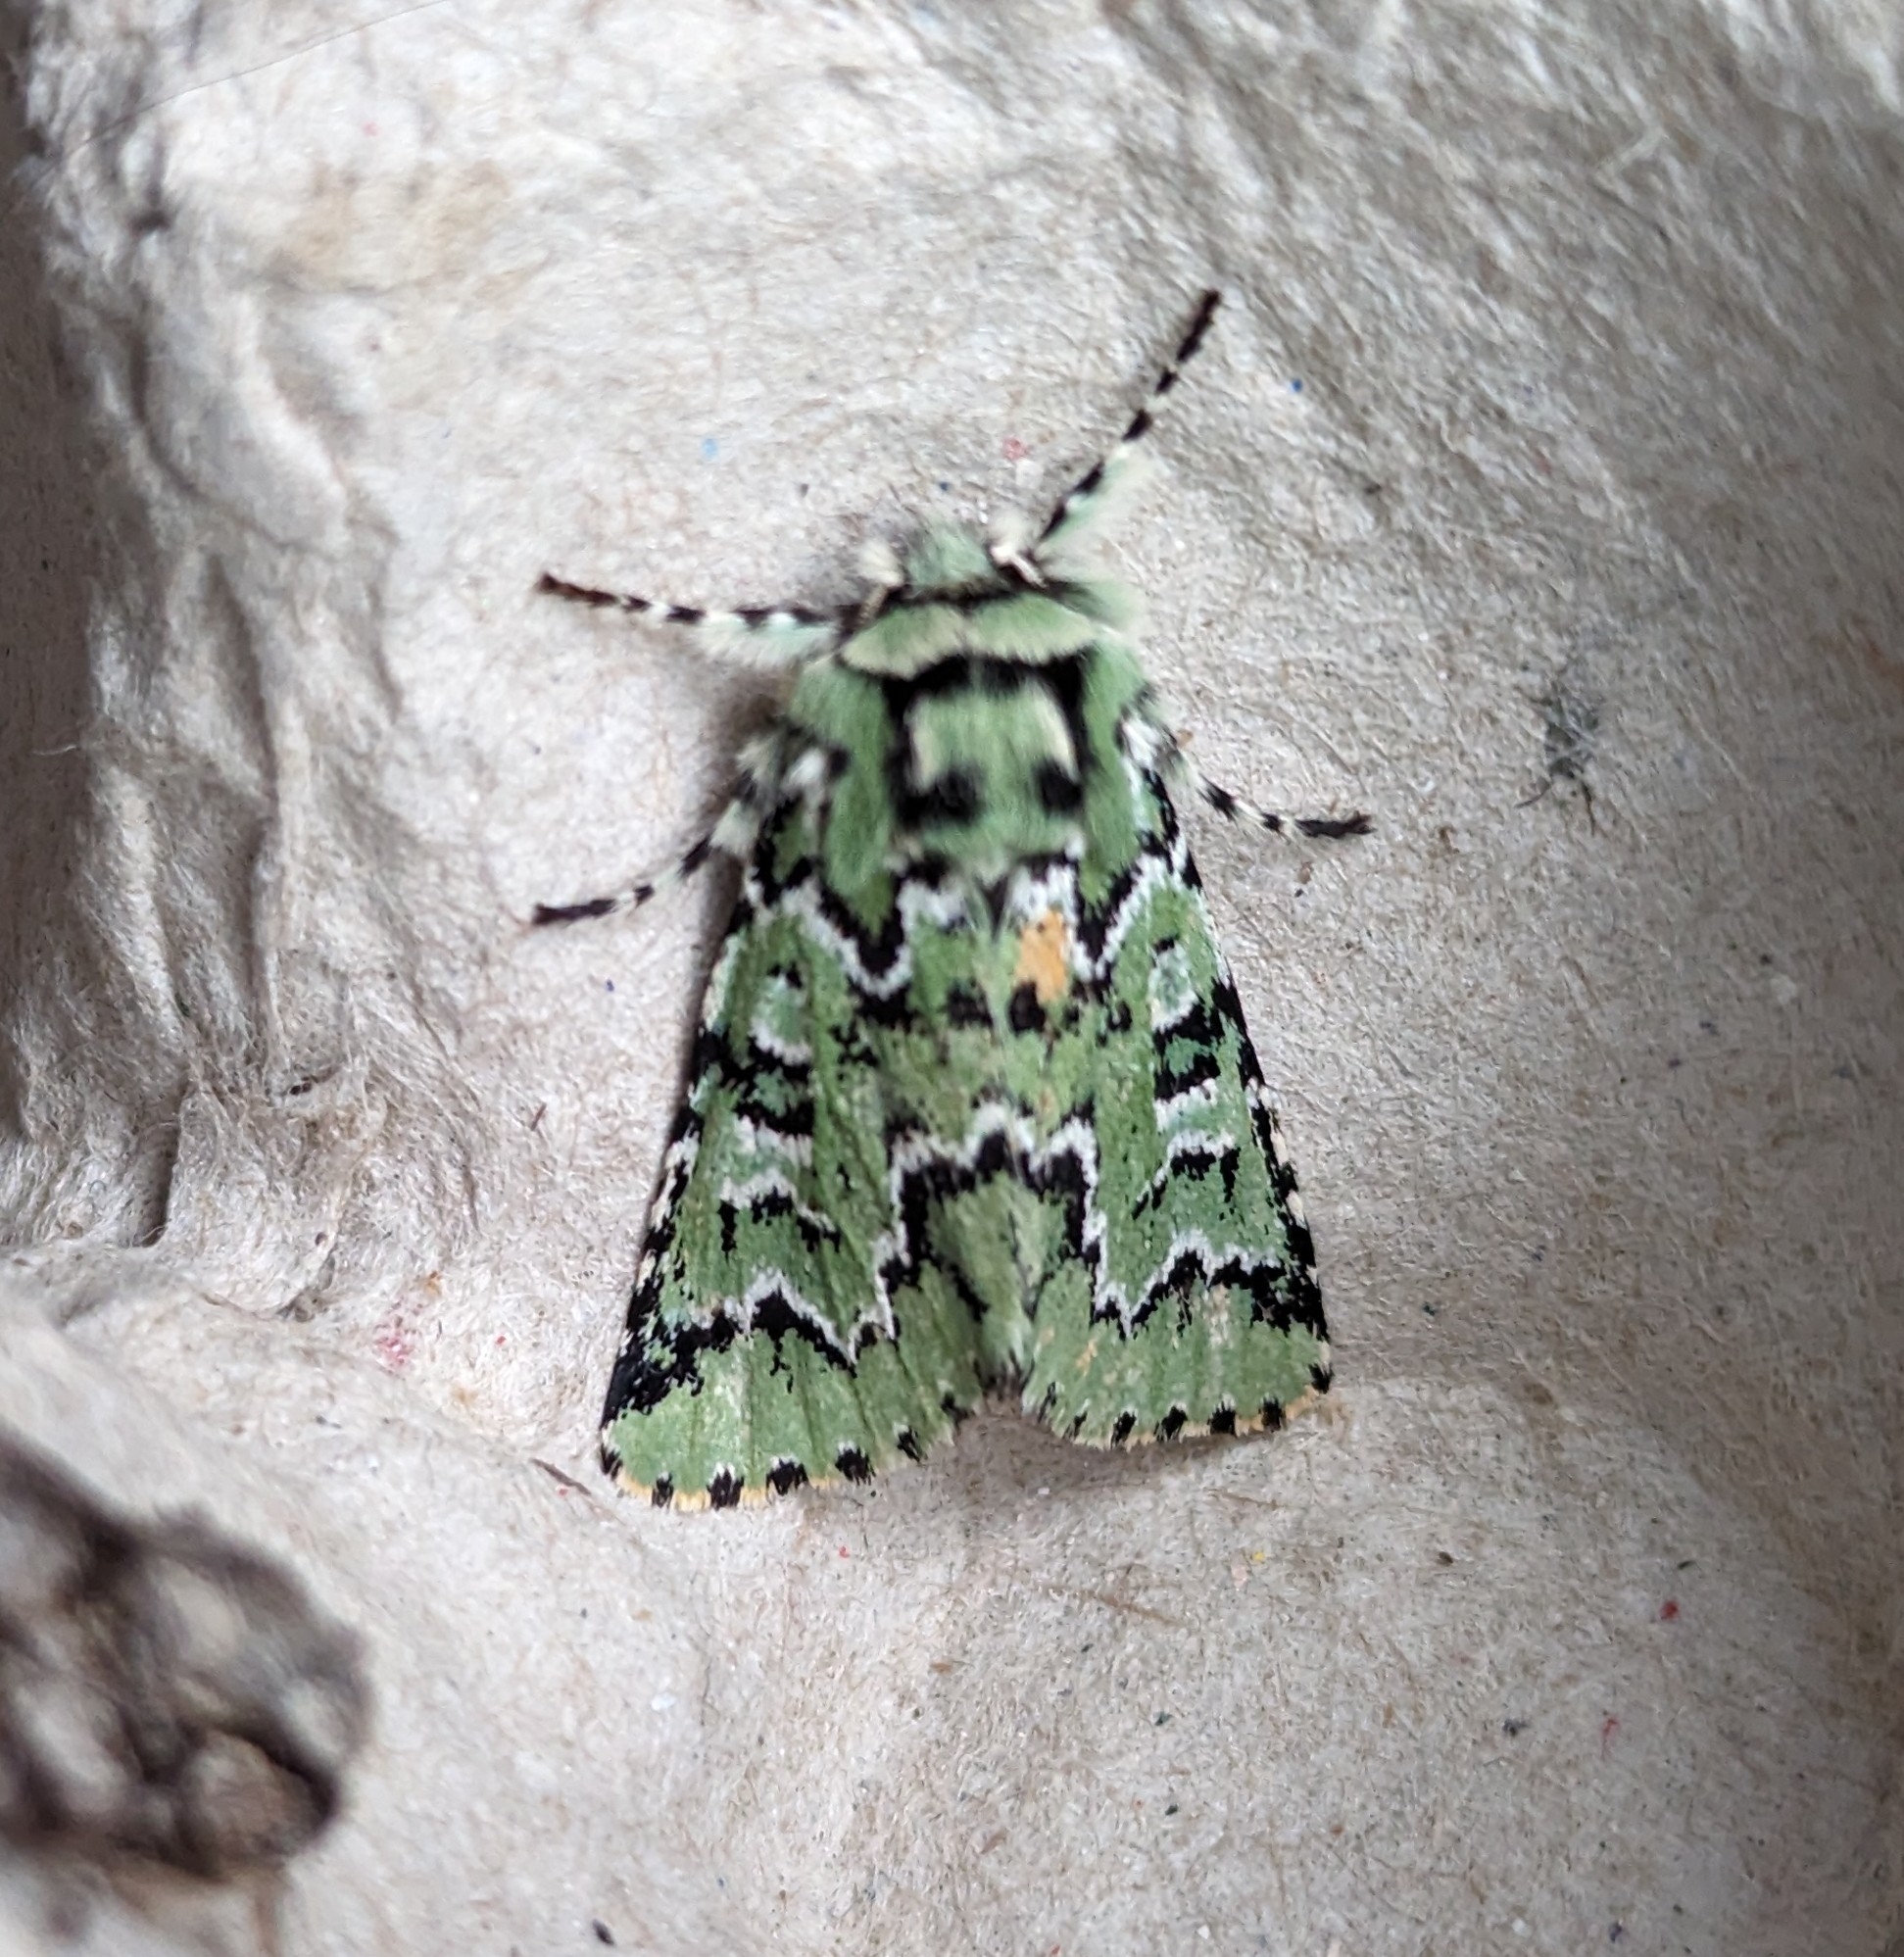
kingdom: Animalia
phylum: Arthropoda
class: Insecta
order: Lepidoptera
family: Noctuidae
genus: Feralia
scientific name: Feralia deceptiva
